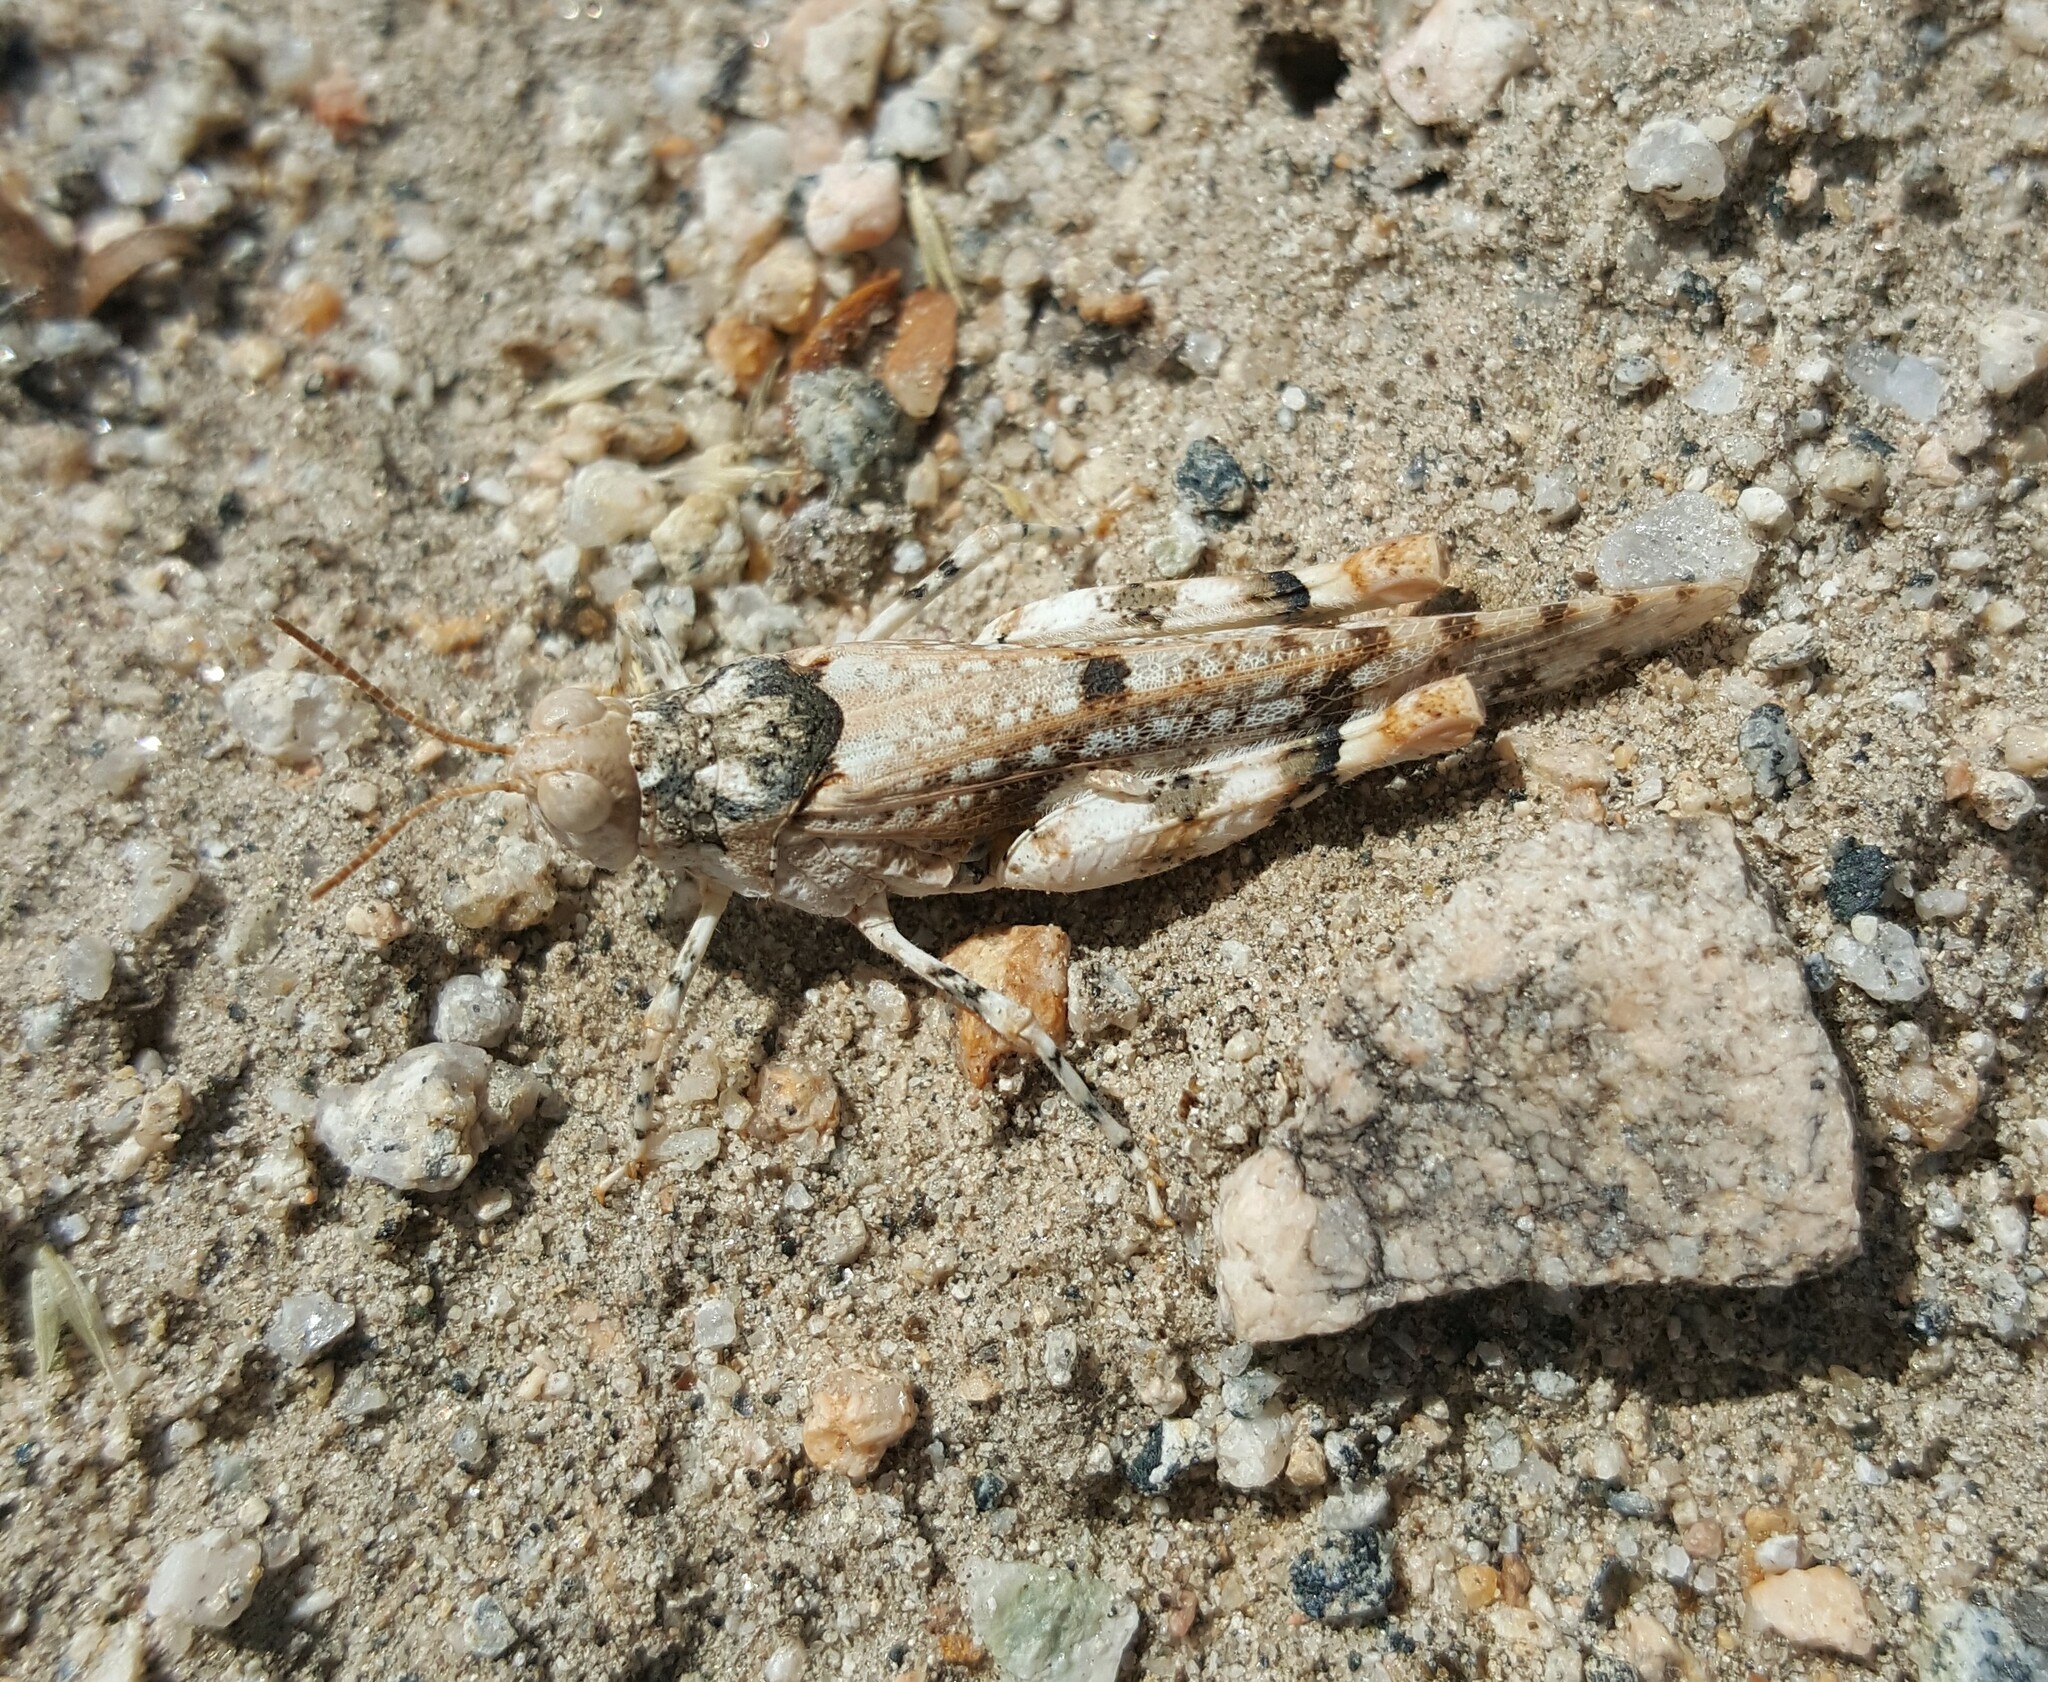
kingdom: Animalia
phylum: Arthropoda
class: Insecta
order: Orthoptera
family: Acrididae
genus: Cibolacris
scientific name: Cibolacris parviceps
